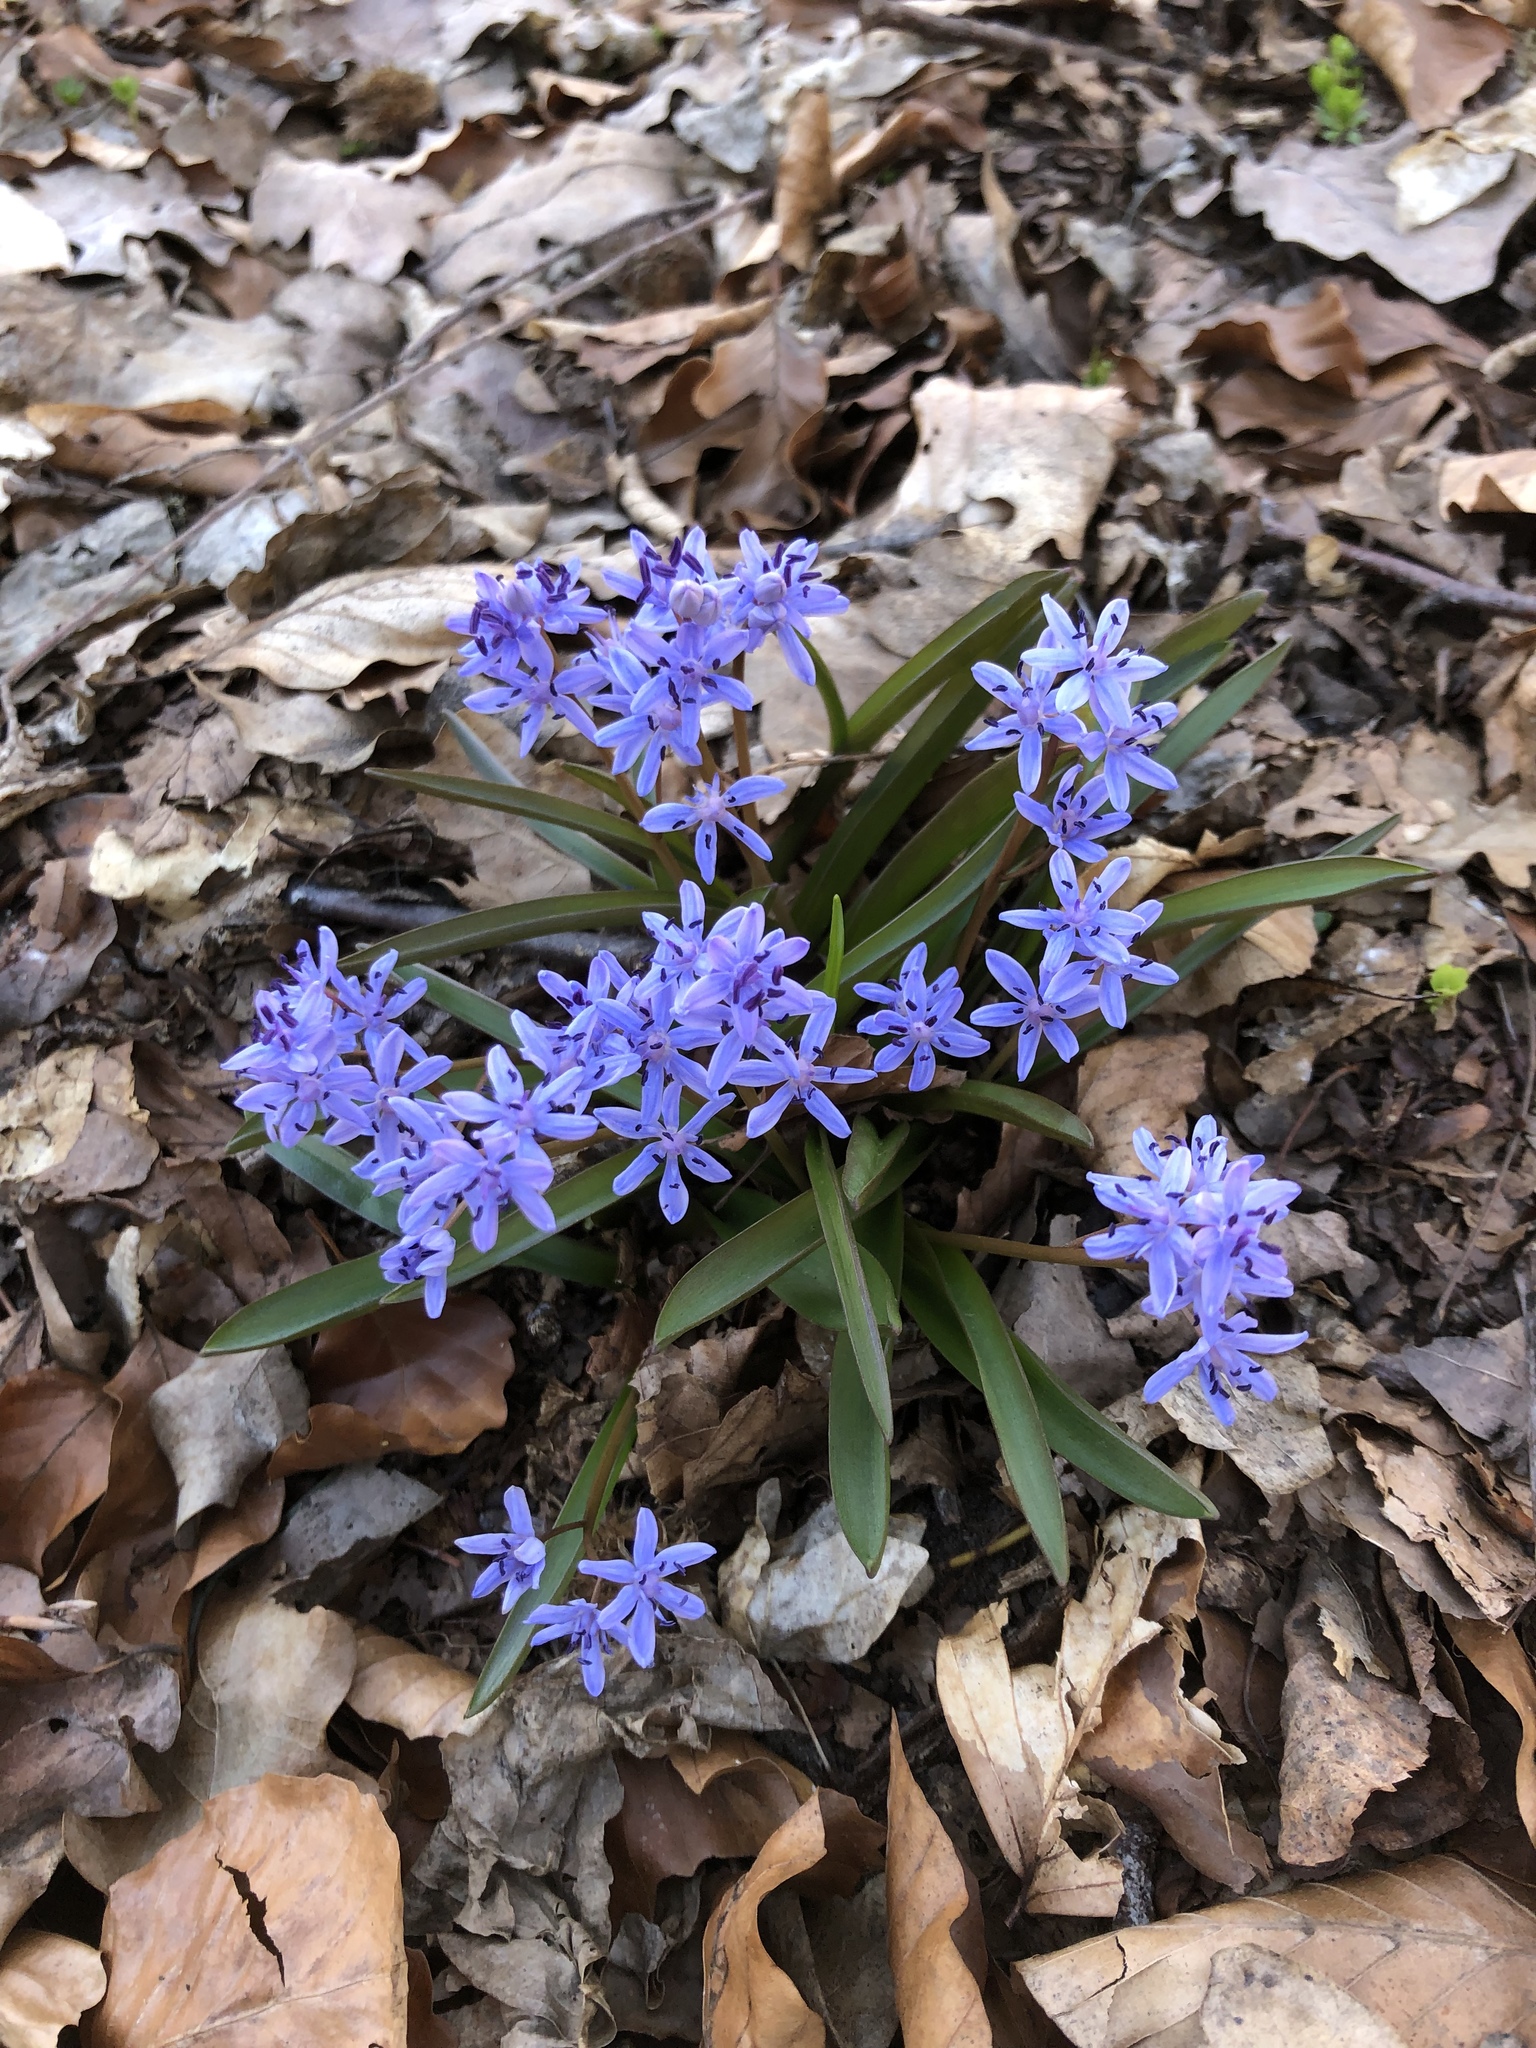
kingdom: Plantae
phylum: Tracheophyta
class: Liliopsida
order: Asparagales
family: Asparagaceae
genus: Scilla
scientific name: Scilla bifolia
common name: Alpine squill
